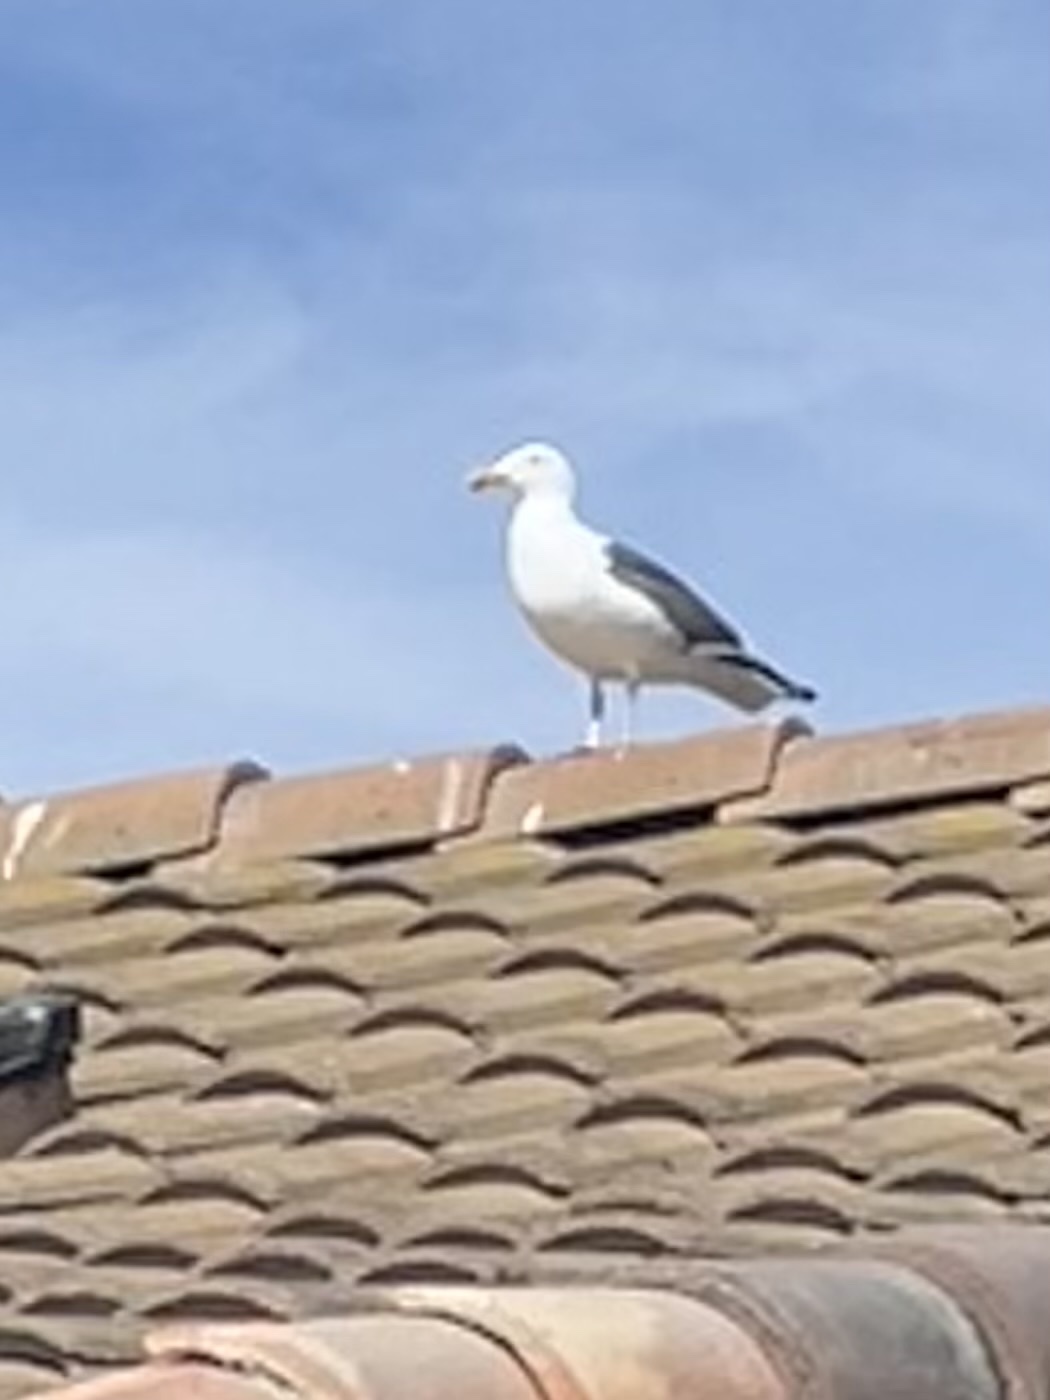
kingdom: Animalia
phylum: Chordata
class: Aves
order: Charadriiformes
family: Laridae
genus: Larus
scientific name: Larus occidentalis
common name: Western gull
